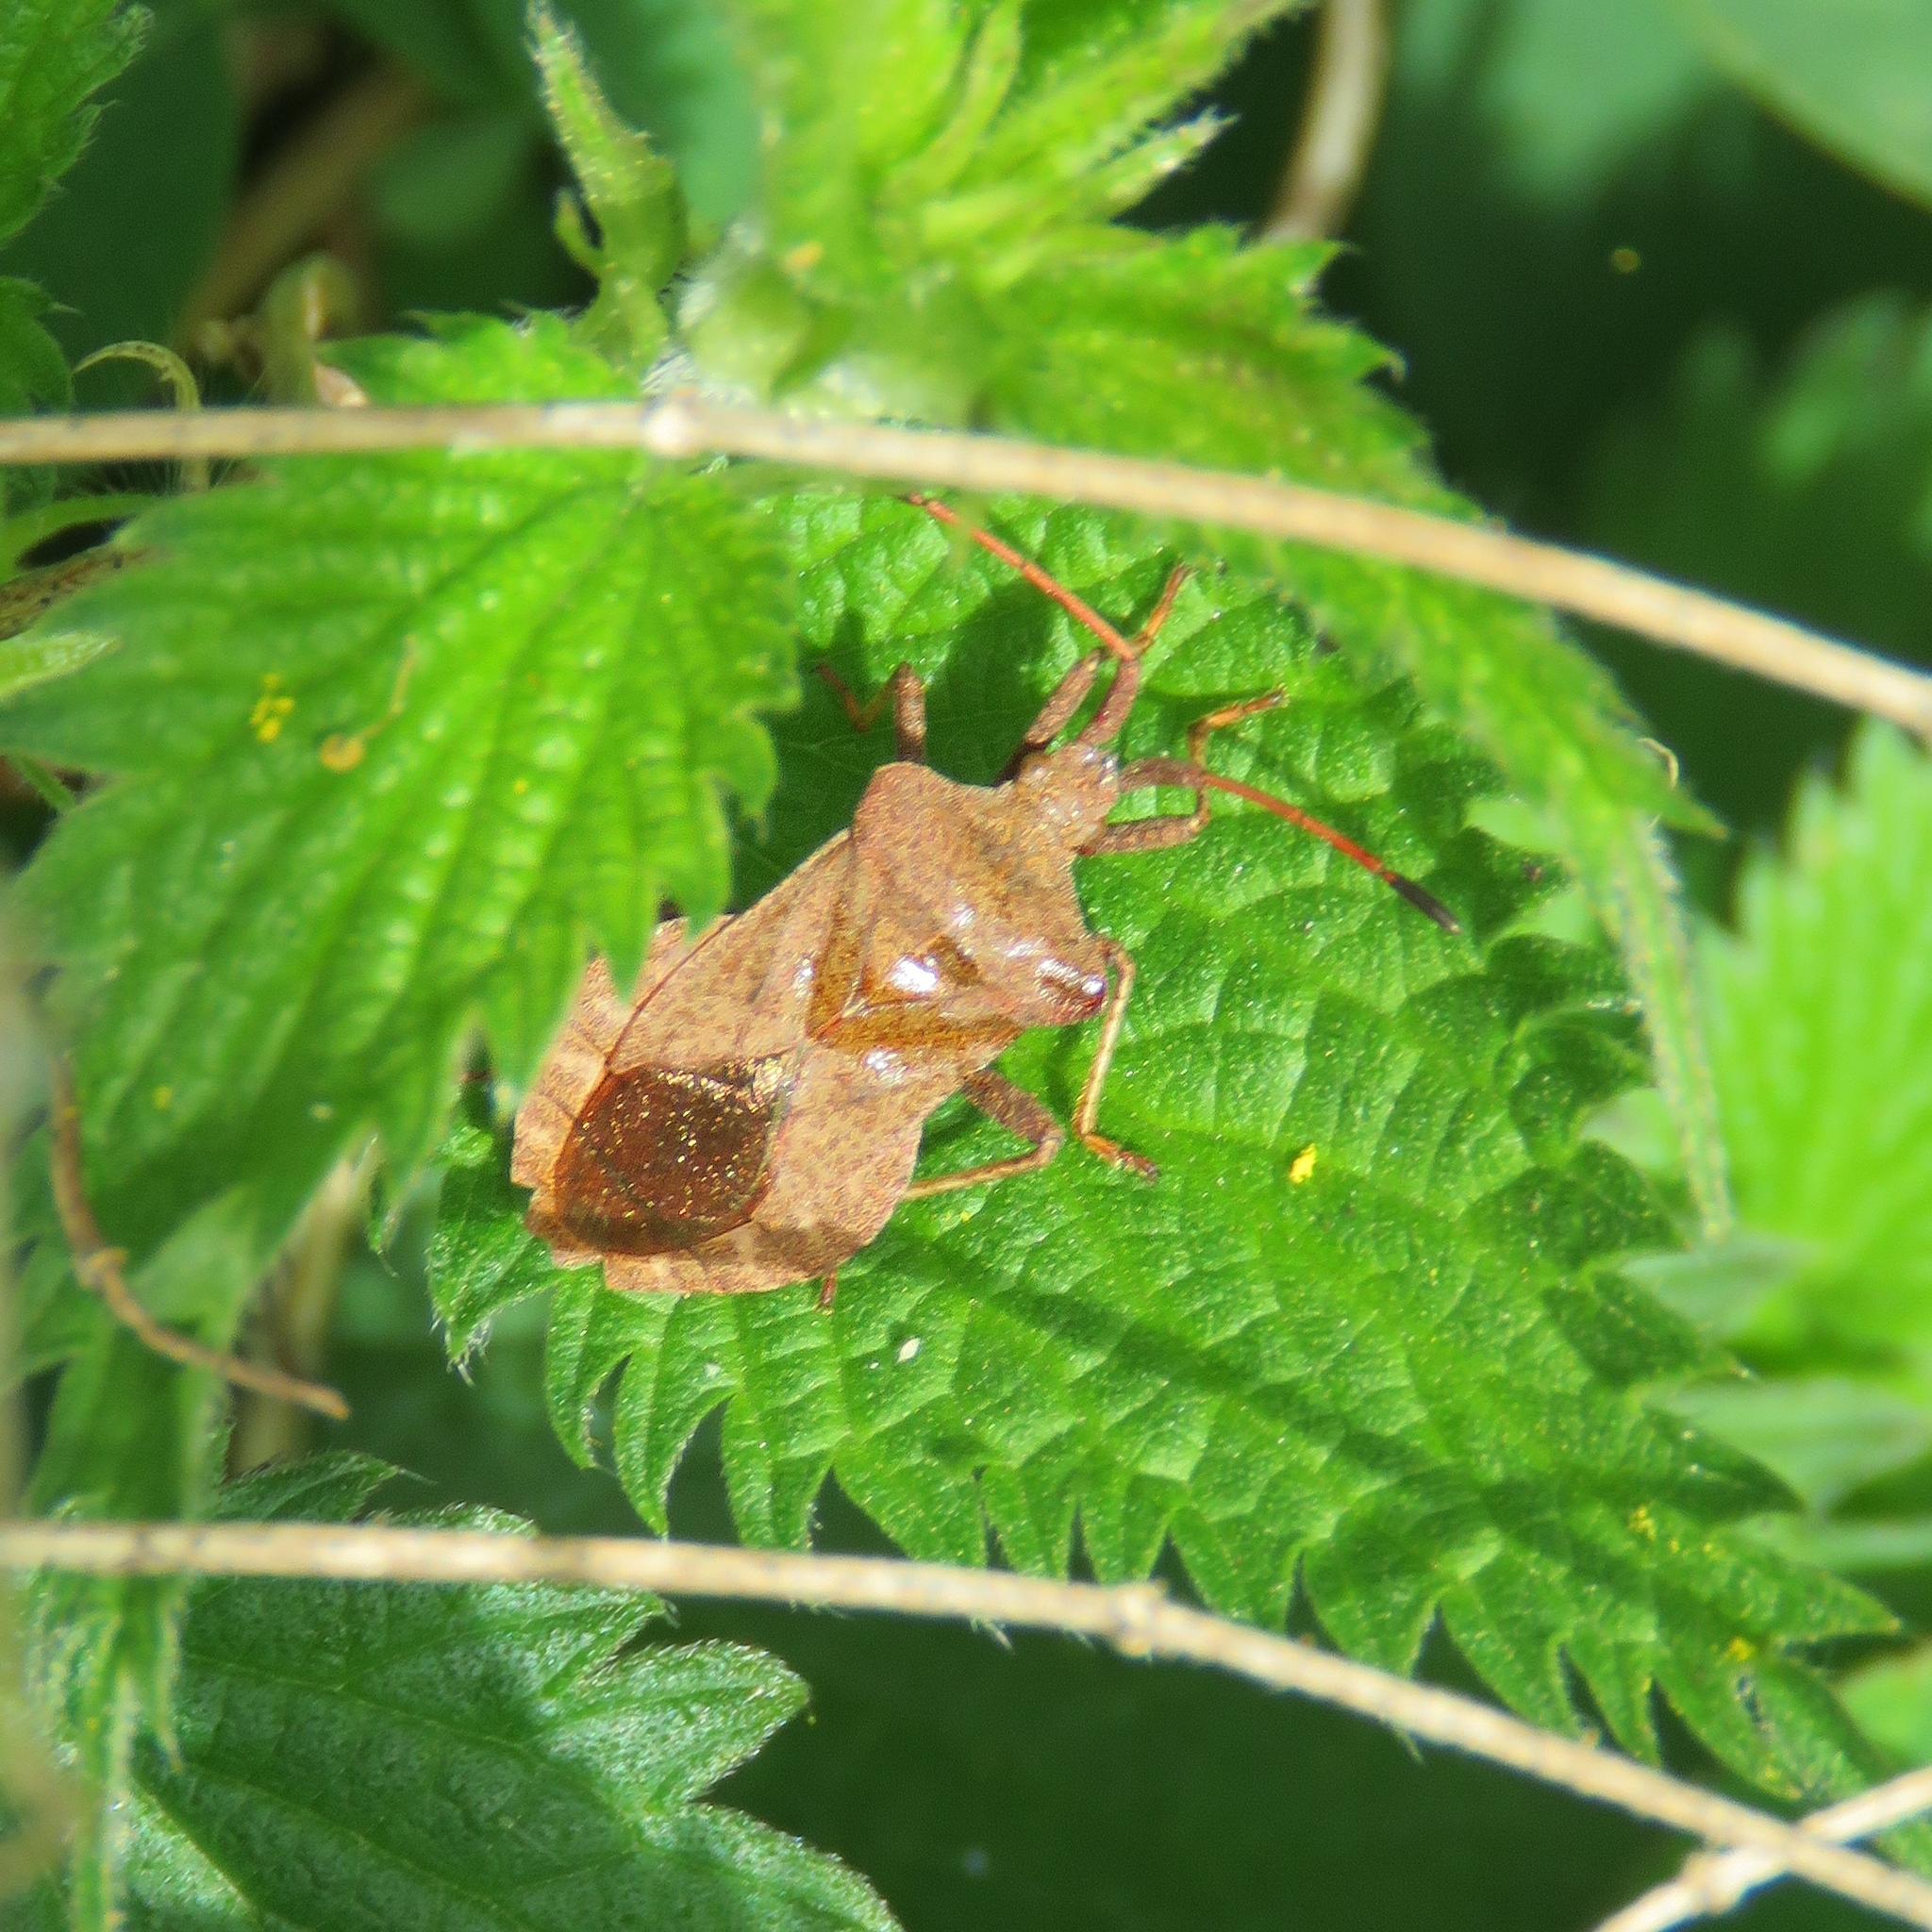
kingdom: Animalia
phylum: Arthropoda
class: Insecta
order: Hemiptera
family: Coreidae
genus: Coreus
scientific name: Coreus marginatus
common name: Dock bug
